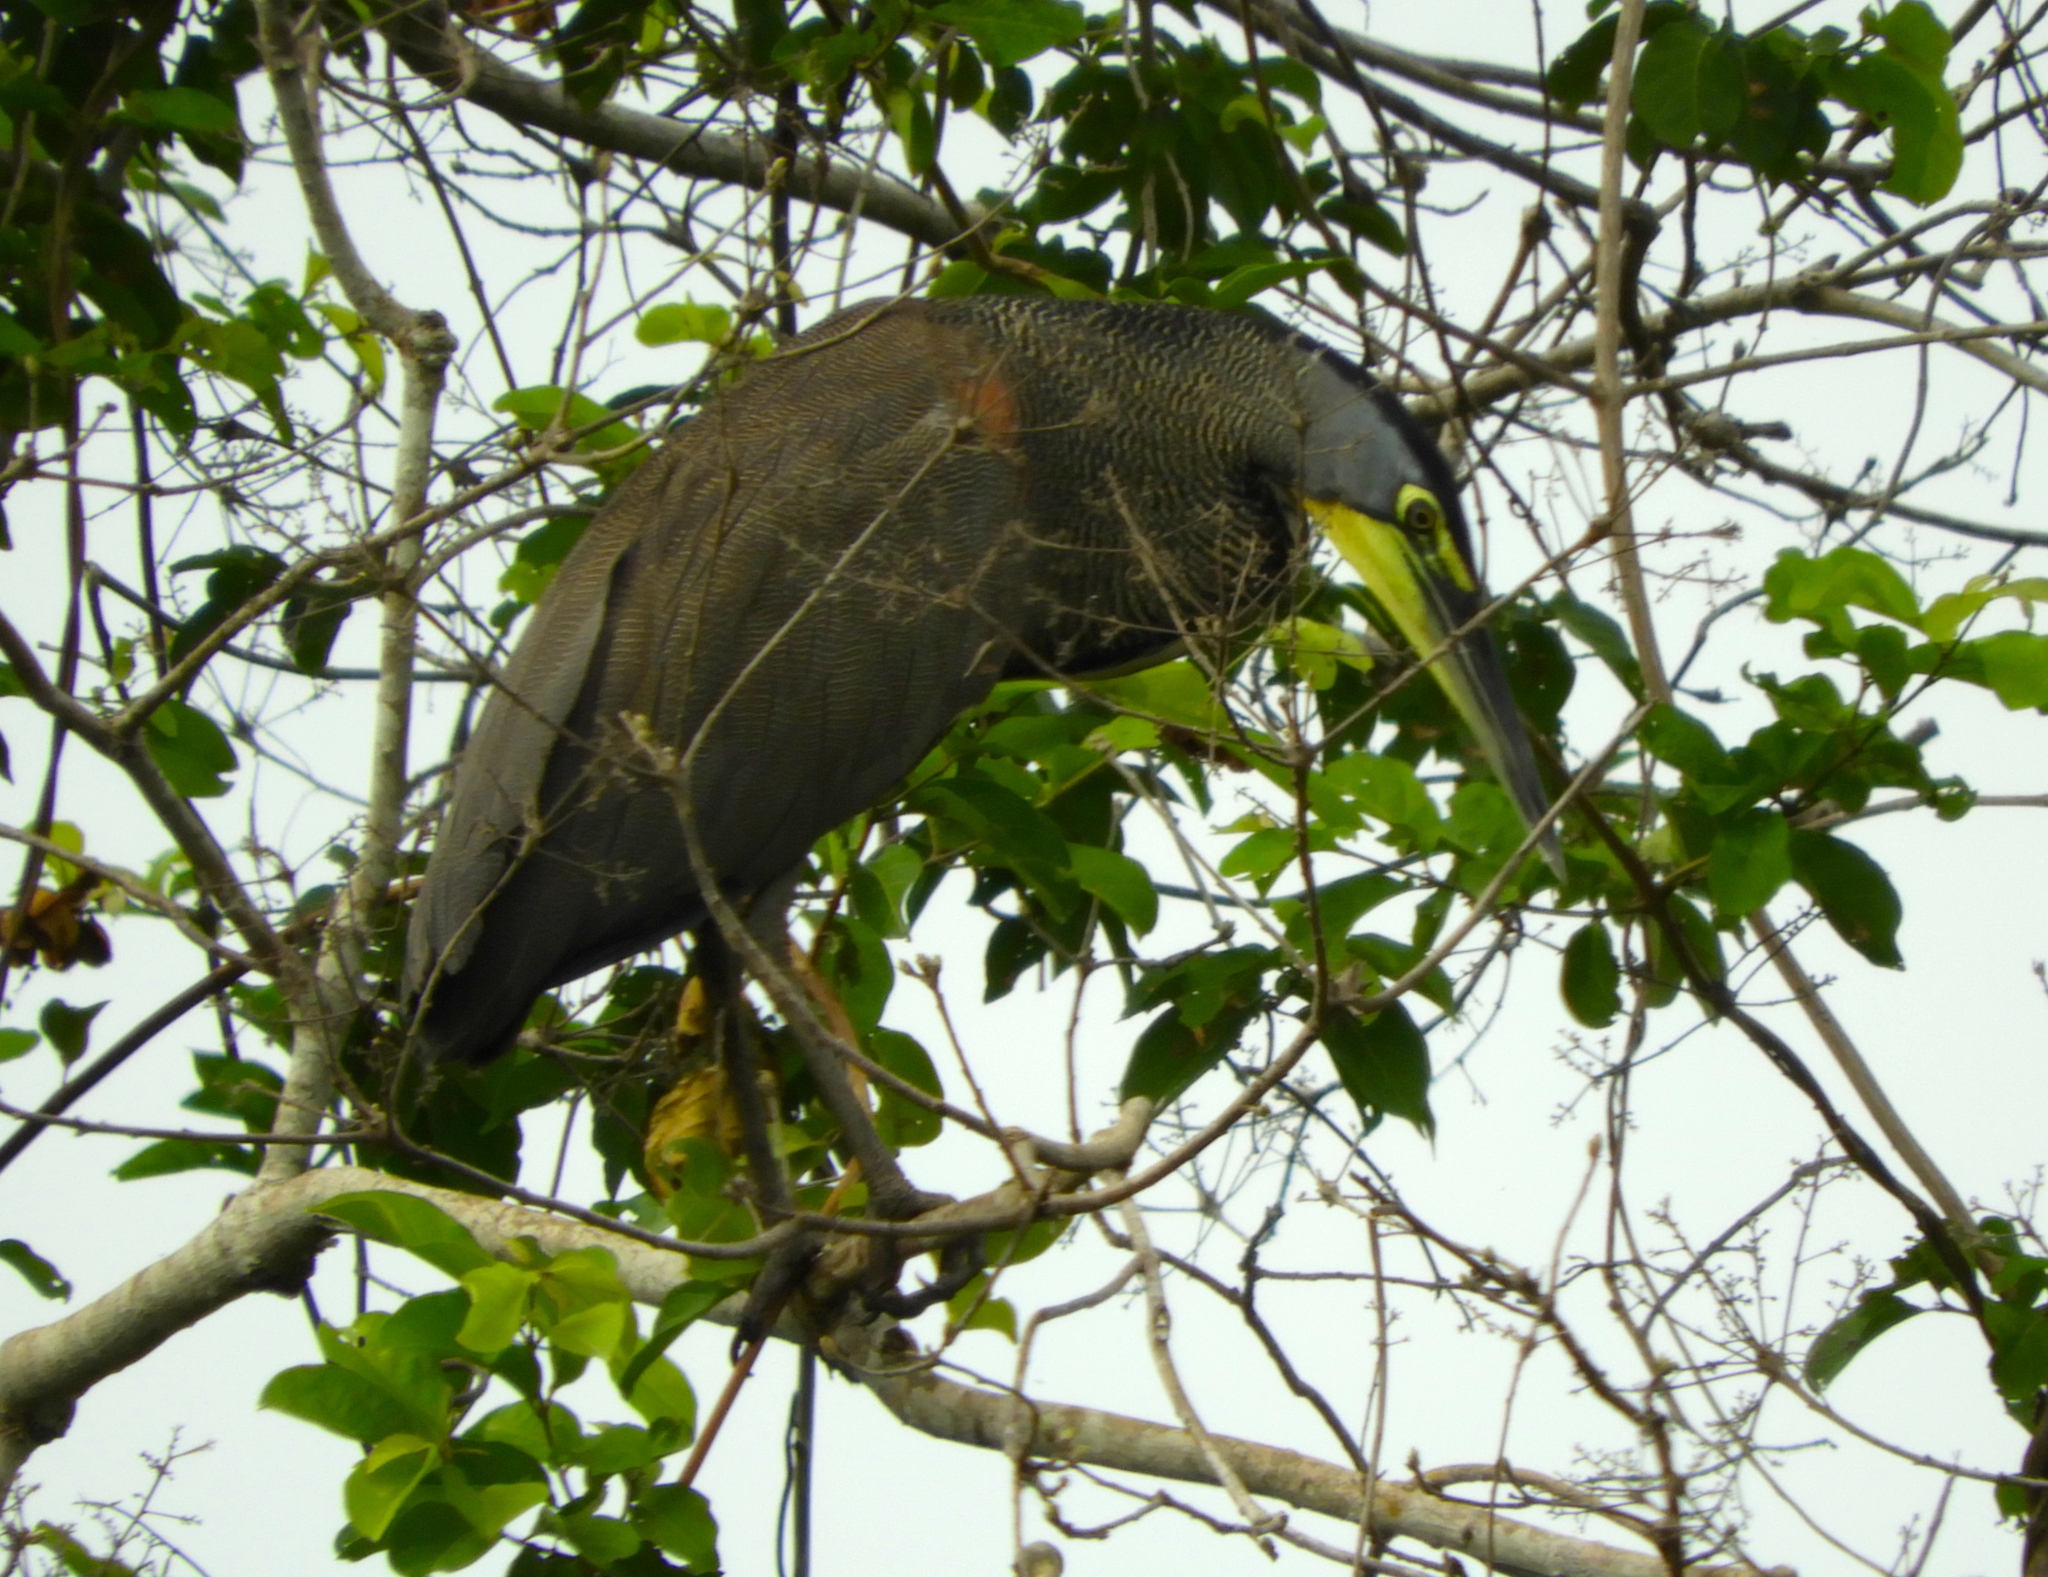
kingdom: Animalia
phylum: Chordata
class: Aves
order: Pelecaniformes
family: Ardeidae
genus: Tigrisoma
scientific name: Tigrisoma mexicanum
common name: Bare-throated tiger-heron
